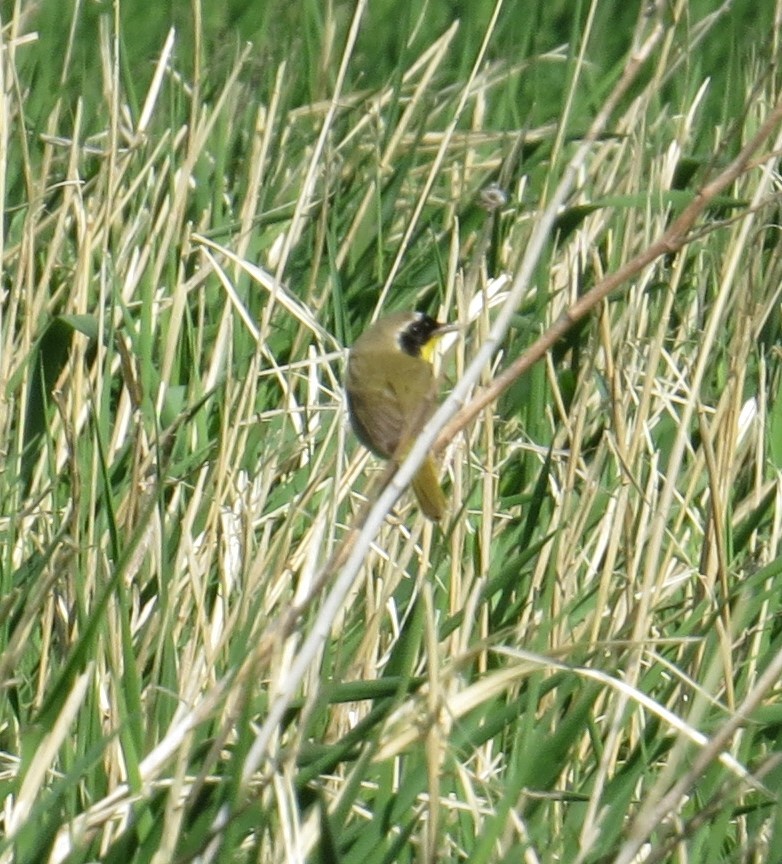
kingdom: Animalia
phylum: Chordata
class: Aves
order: Passeriformes
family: Parulidae
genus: Geothlypis
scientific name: Geothlypis trichas
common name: Common yellowthroat
